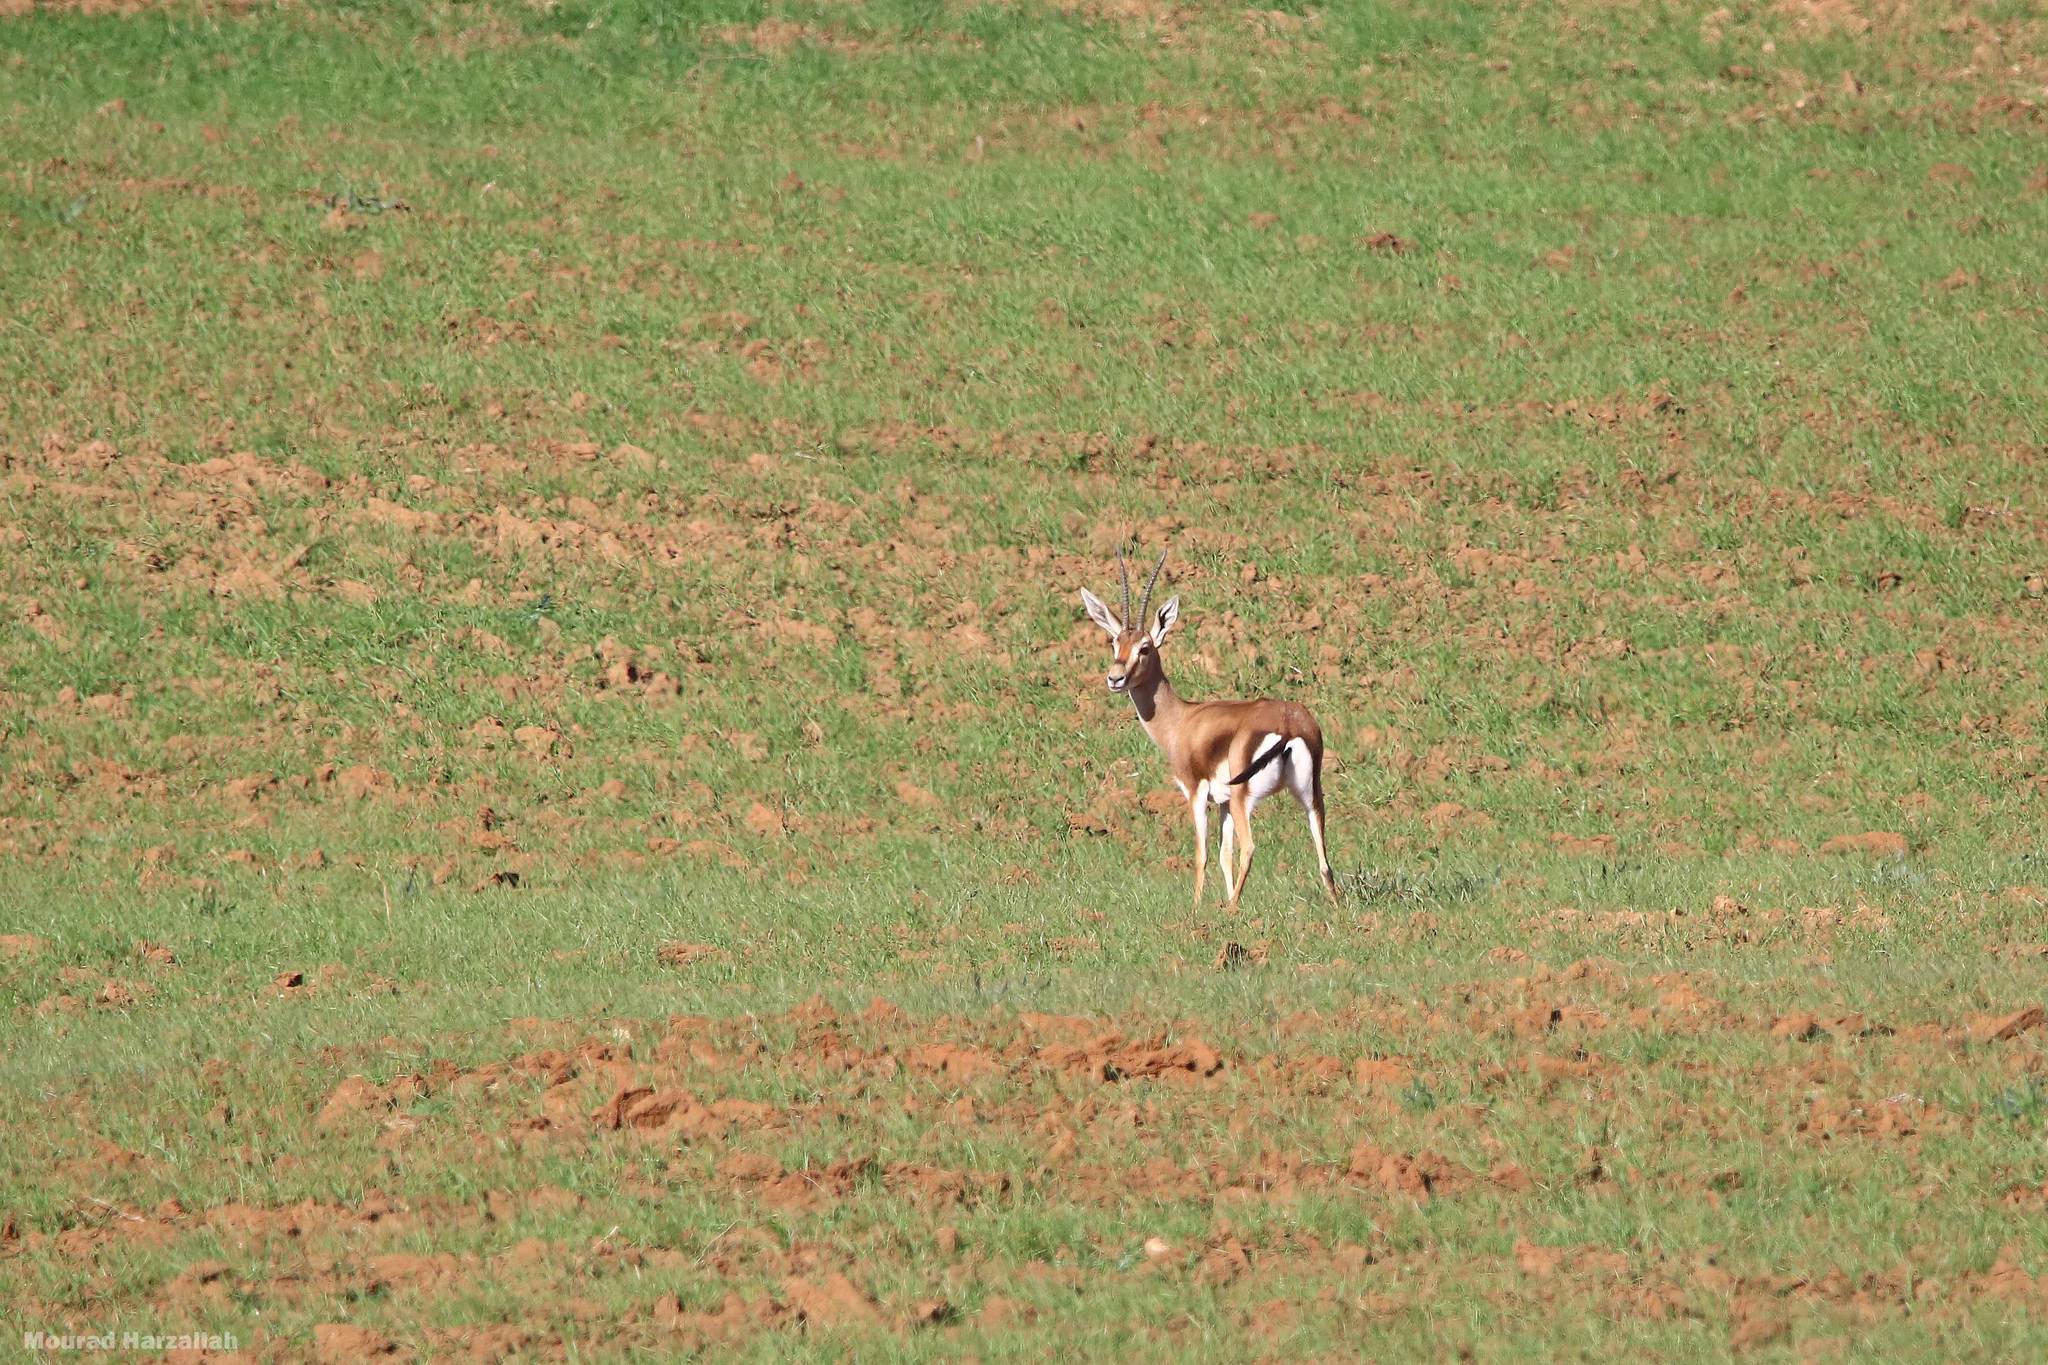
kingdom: Animalia
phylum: Chordata
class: Mammalia
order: Artiodactyla
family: Bovidae
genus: Gazella
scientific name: Gazella cuvieri
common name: Cuvier's gazelle
